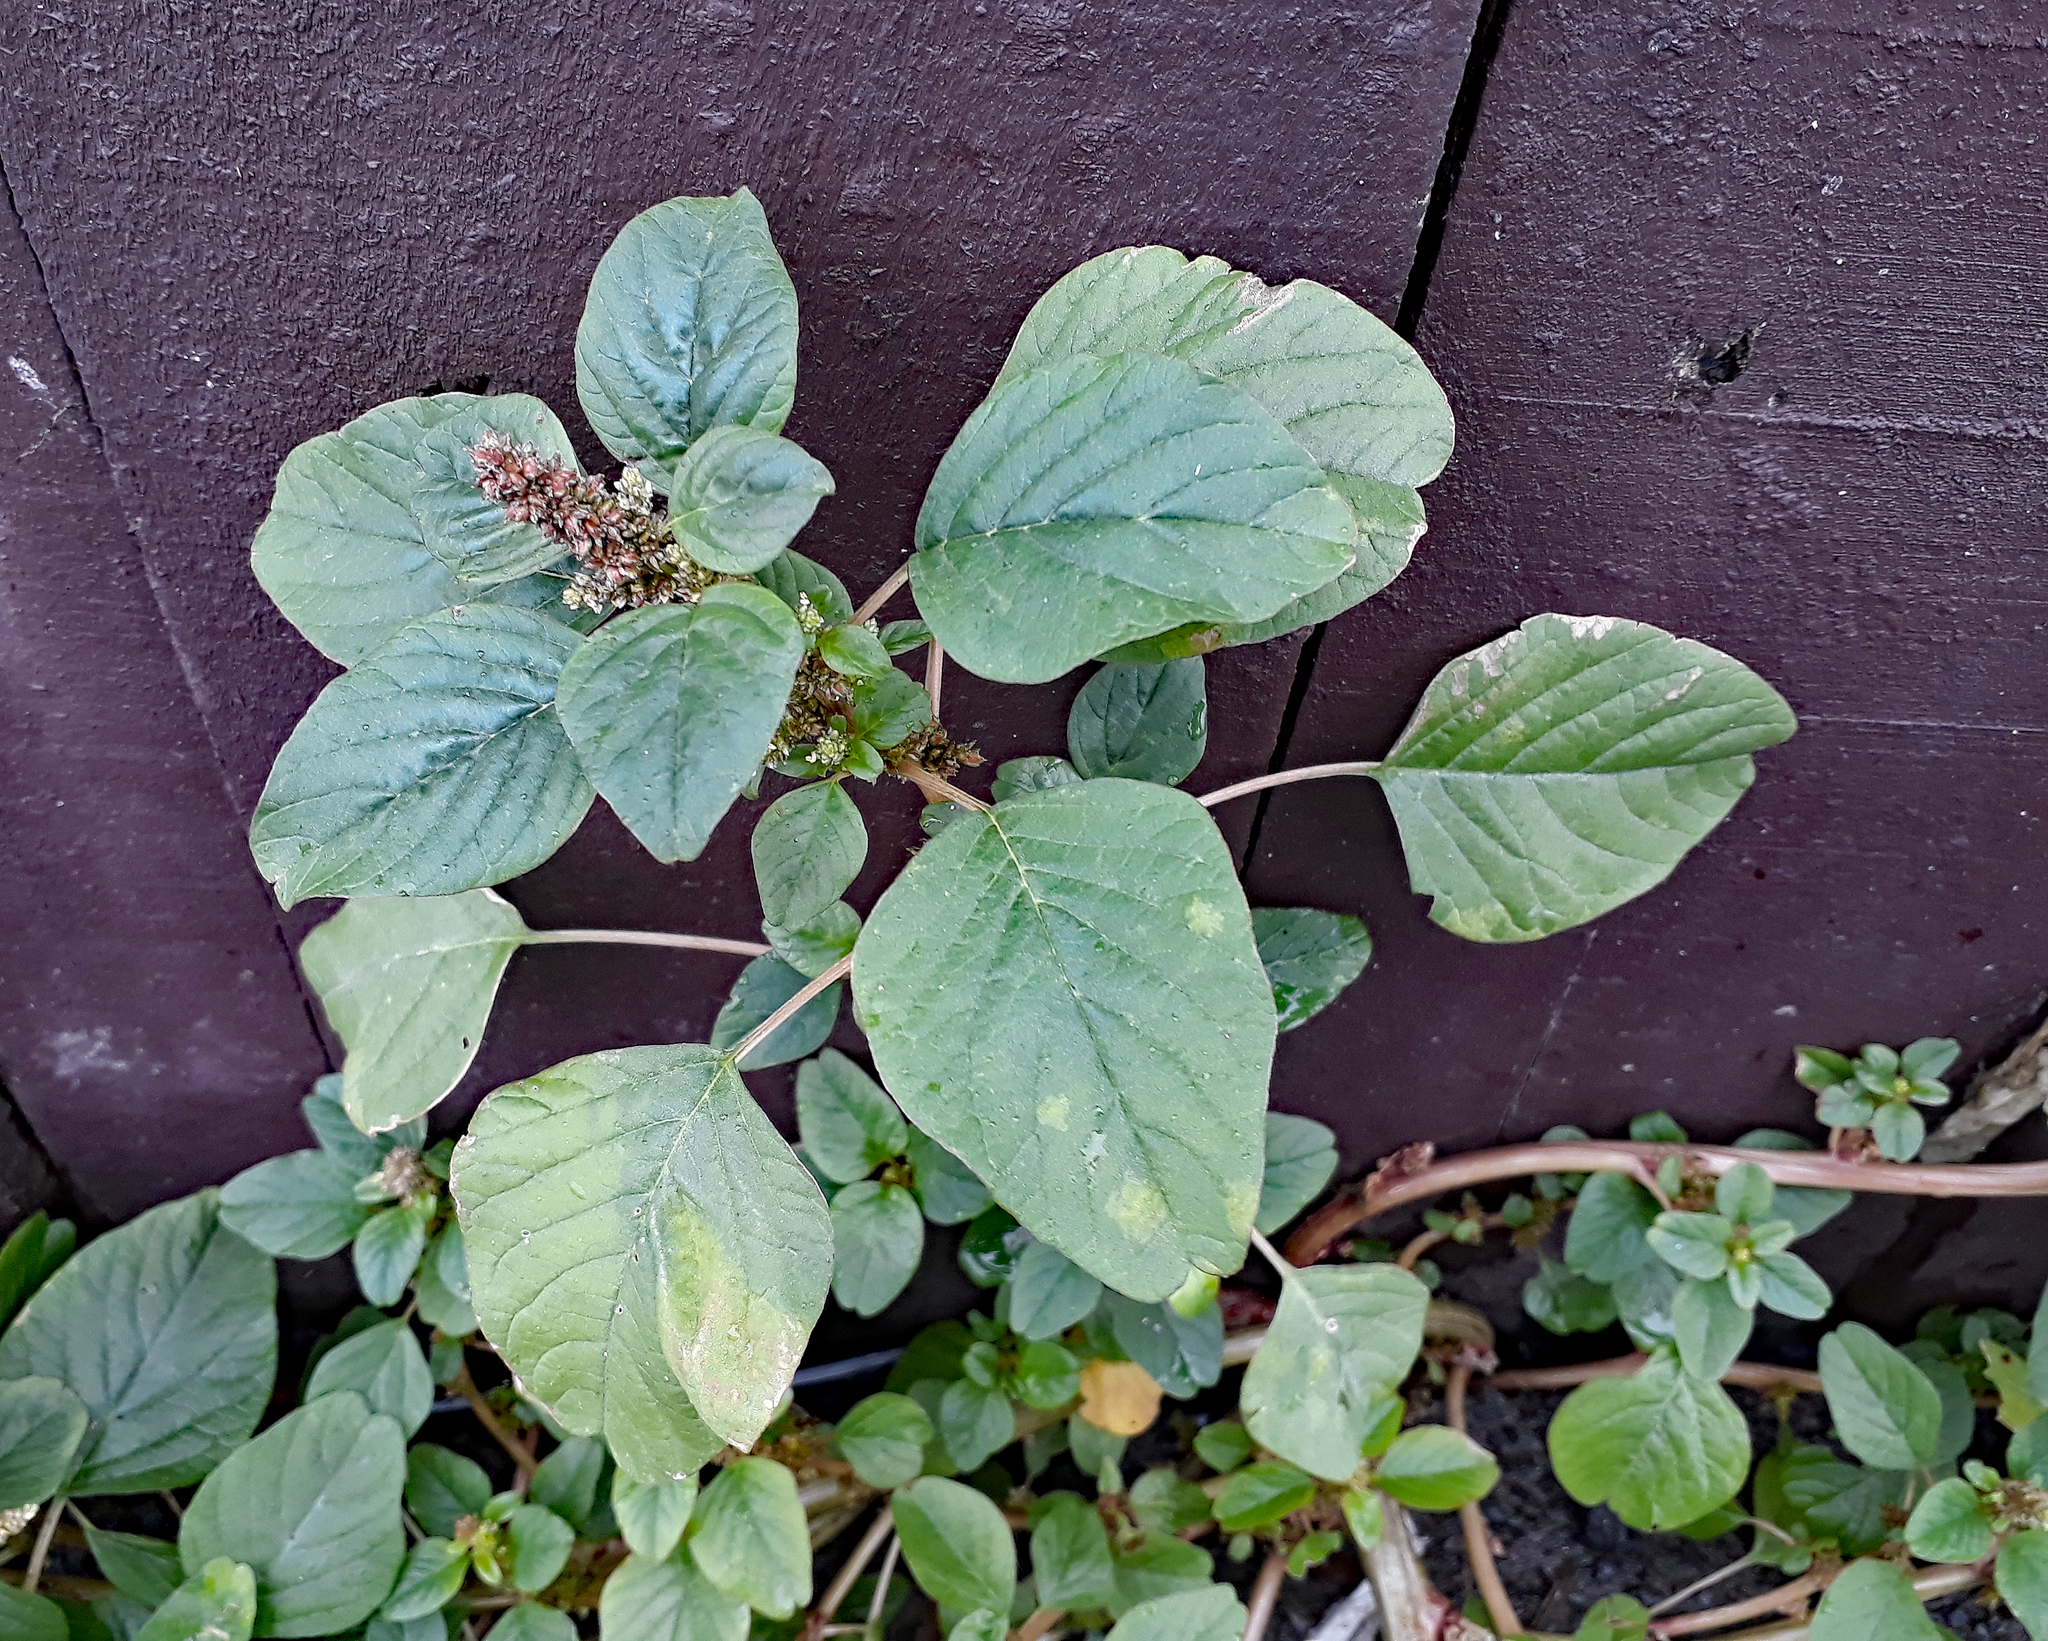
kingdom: Plantae
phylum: Tracheophyta
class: Magnoliopsida
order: Caryophyllales
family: Amaranthaceae
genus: Amaranthus
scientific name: Amaranthus blitum
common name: Purple amaranth
